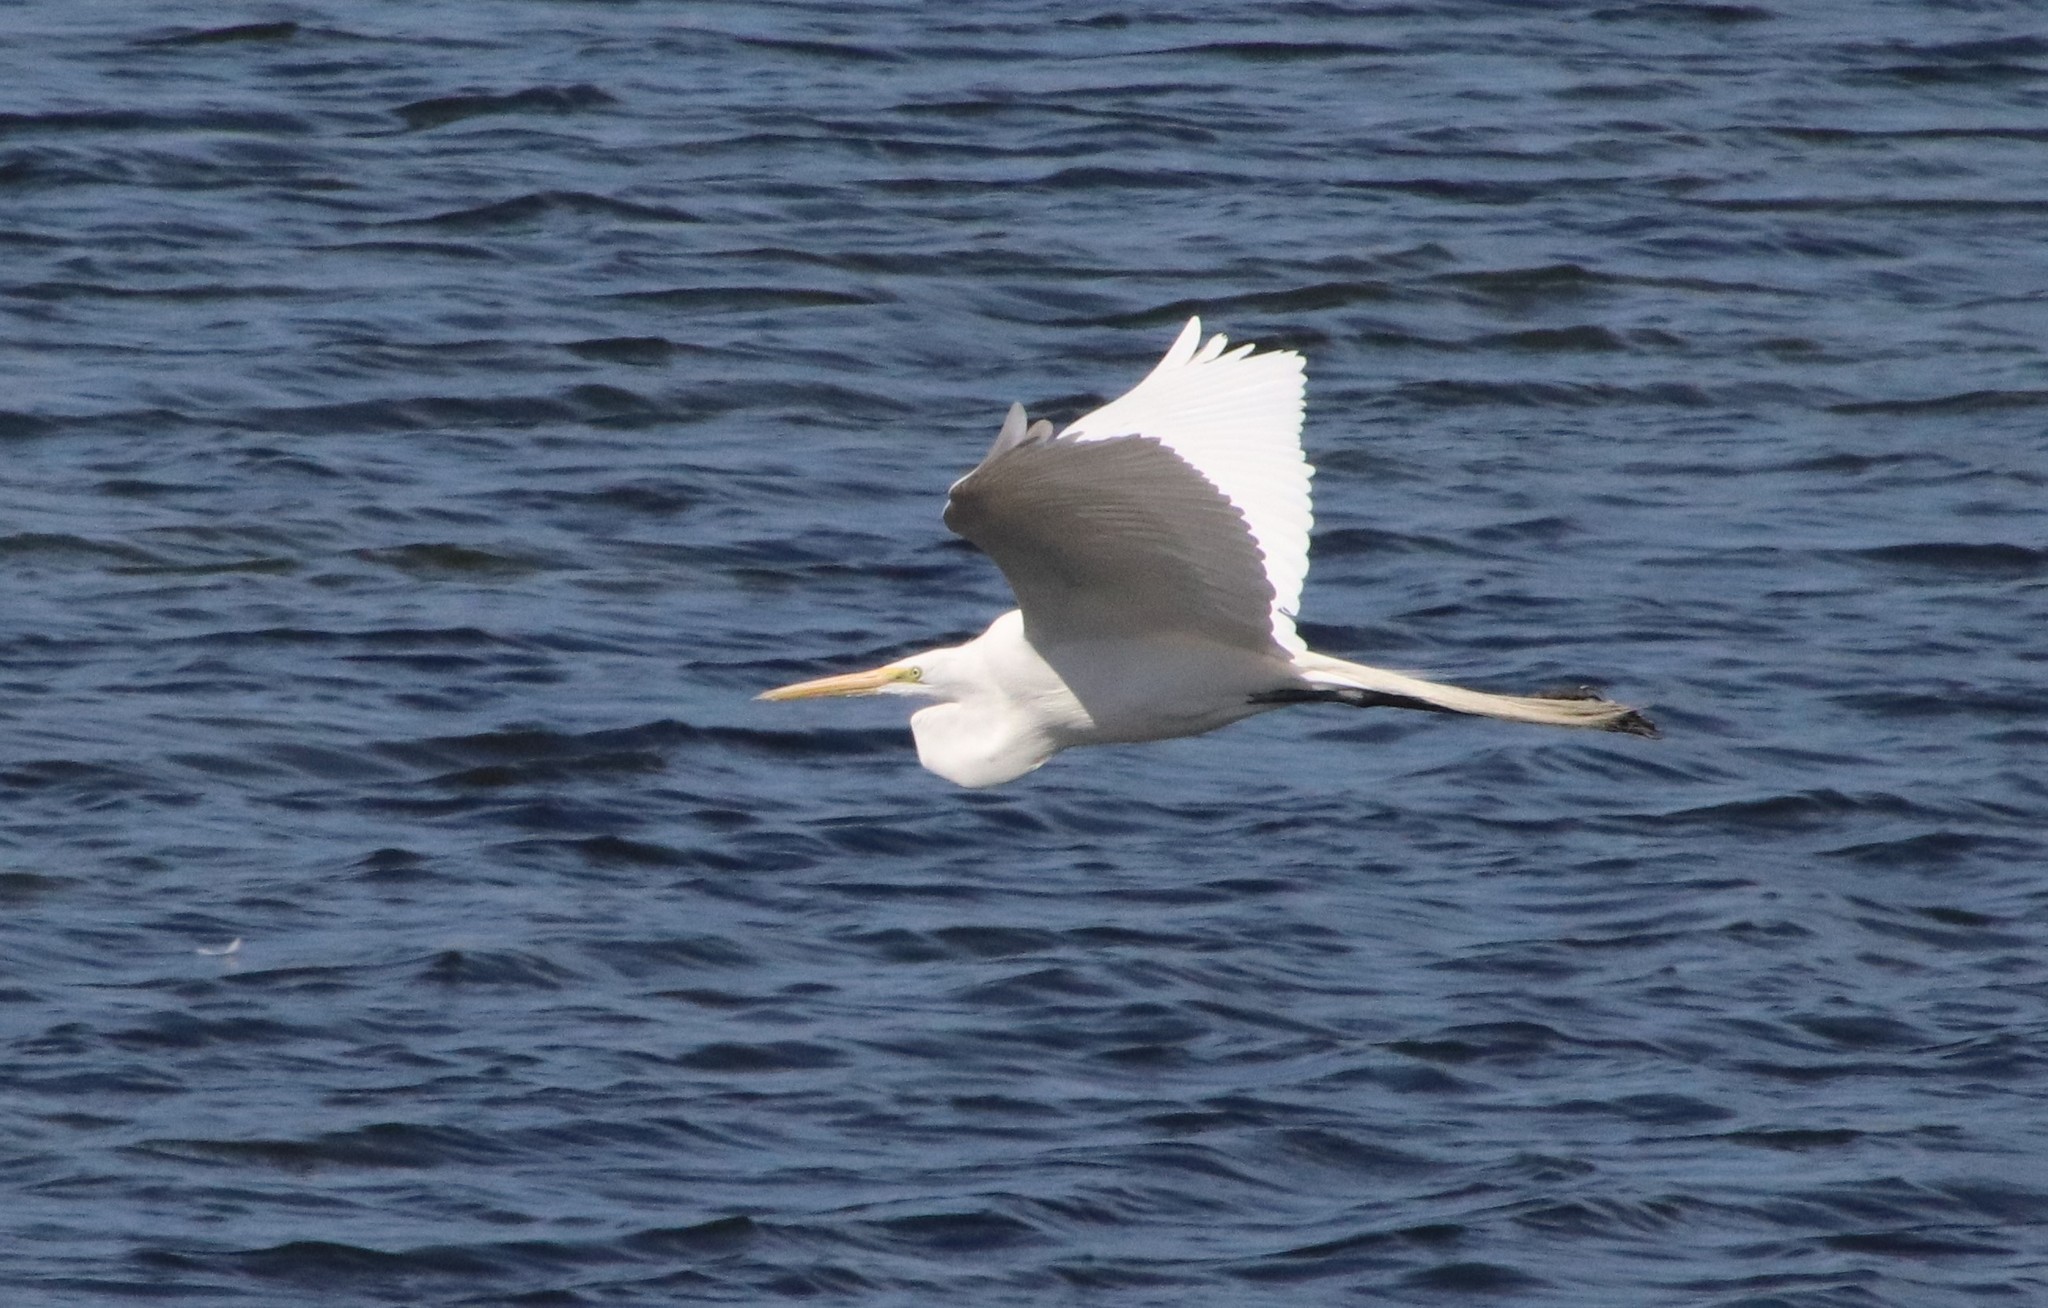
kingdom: Animalia
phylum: Chordata
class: Aves
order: Pelecaniformes
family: Ardeidae
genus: Ardea
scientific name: Ardea alba
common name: Great egret
